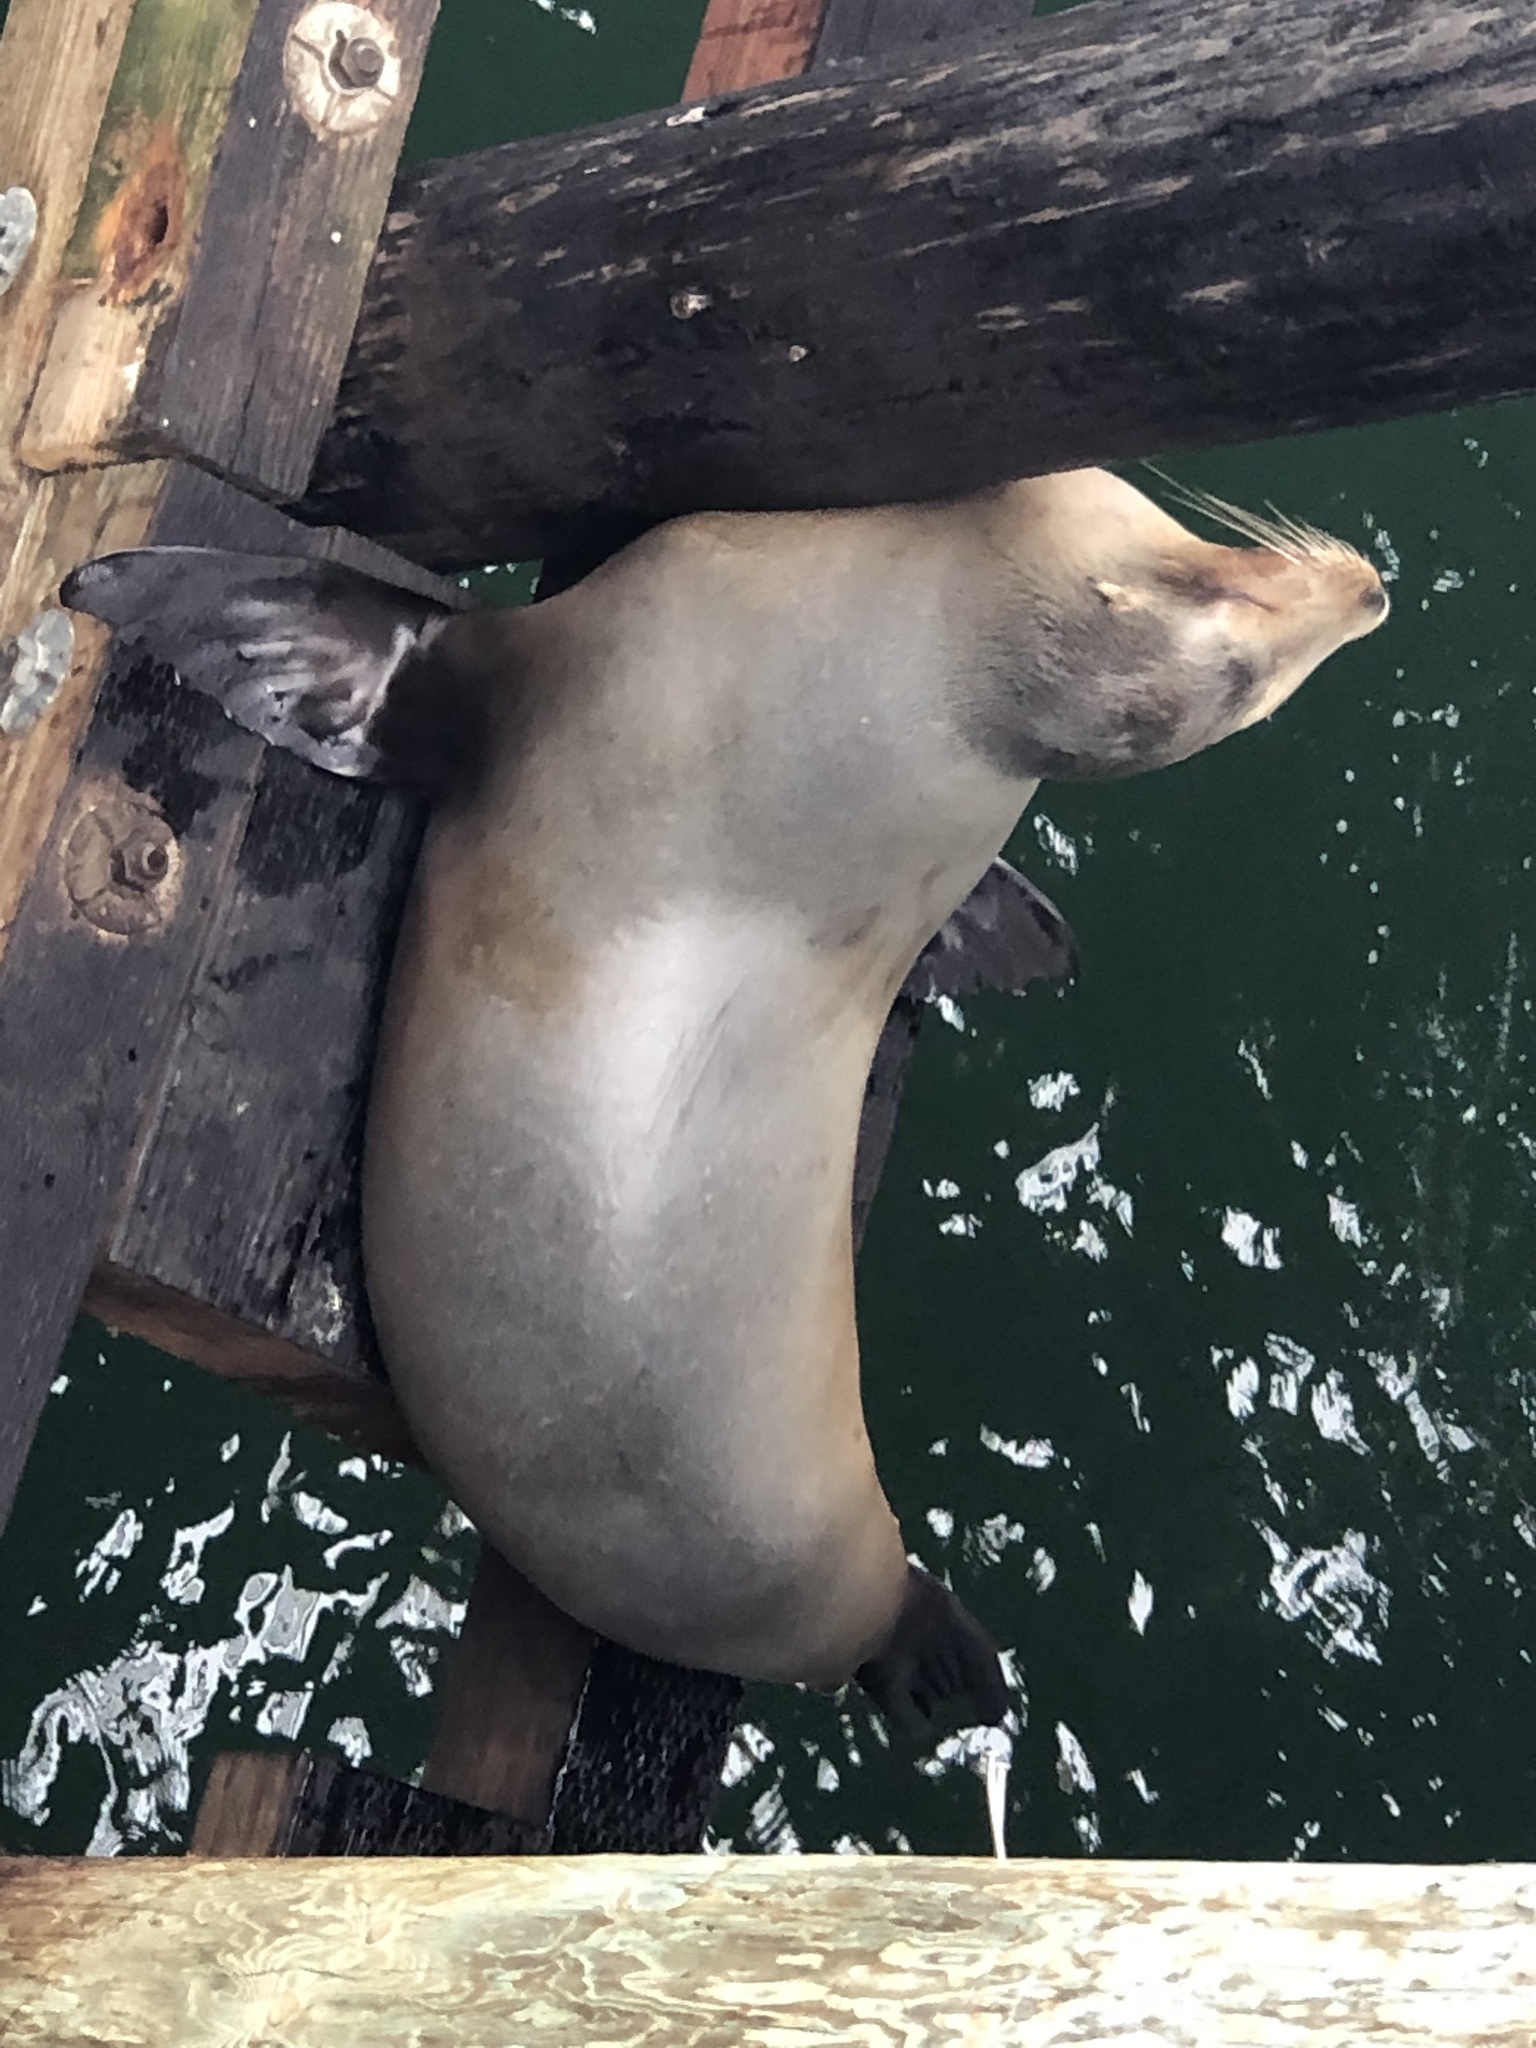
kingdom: Animalia
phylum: Chordata
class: Mammalia
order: Carnivora
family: Otariidae
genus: Zalophus
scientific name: Zalophus californianus
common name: California sea lion
